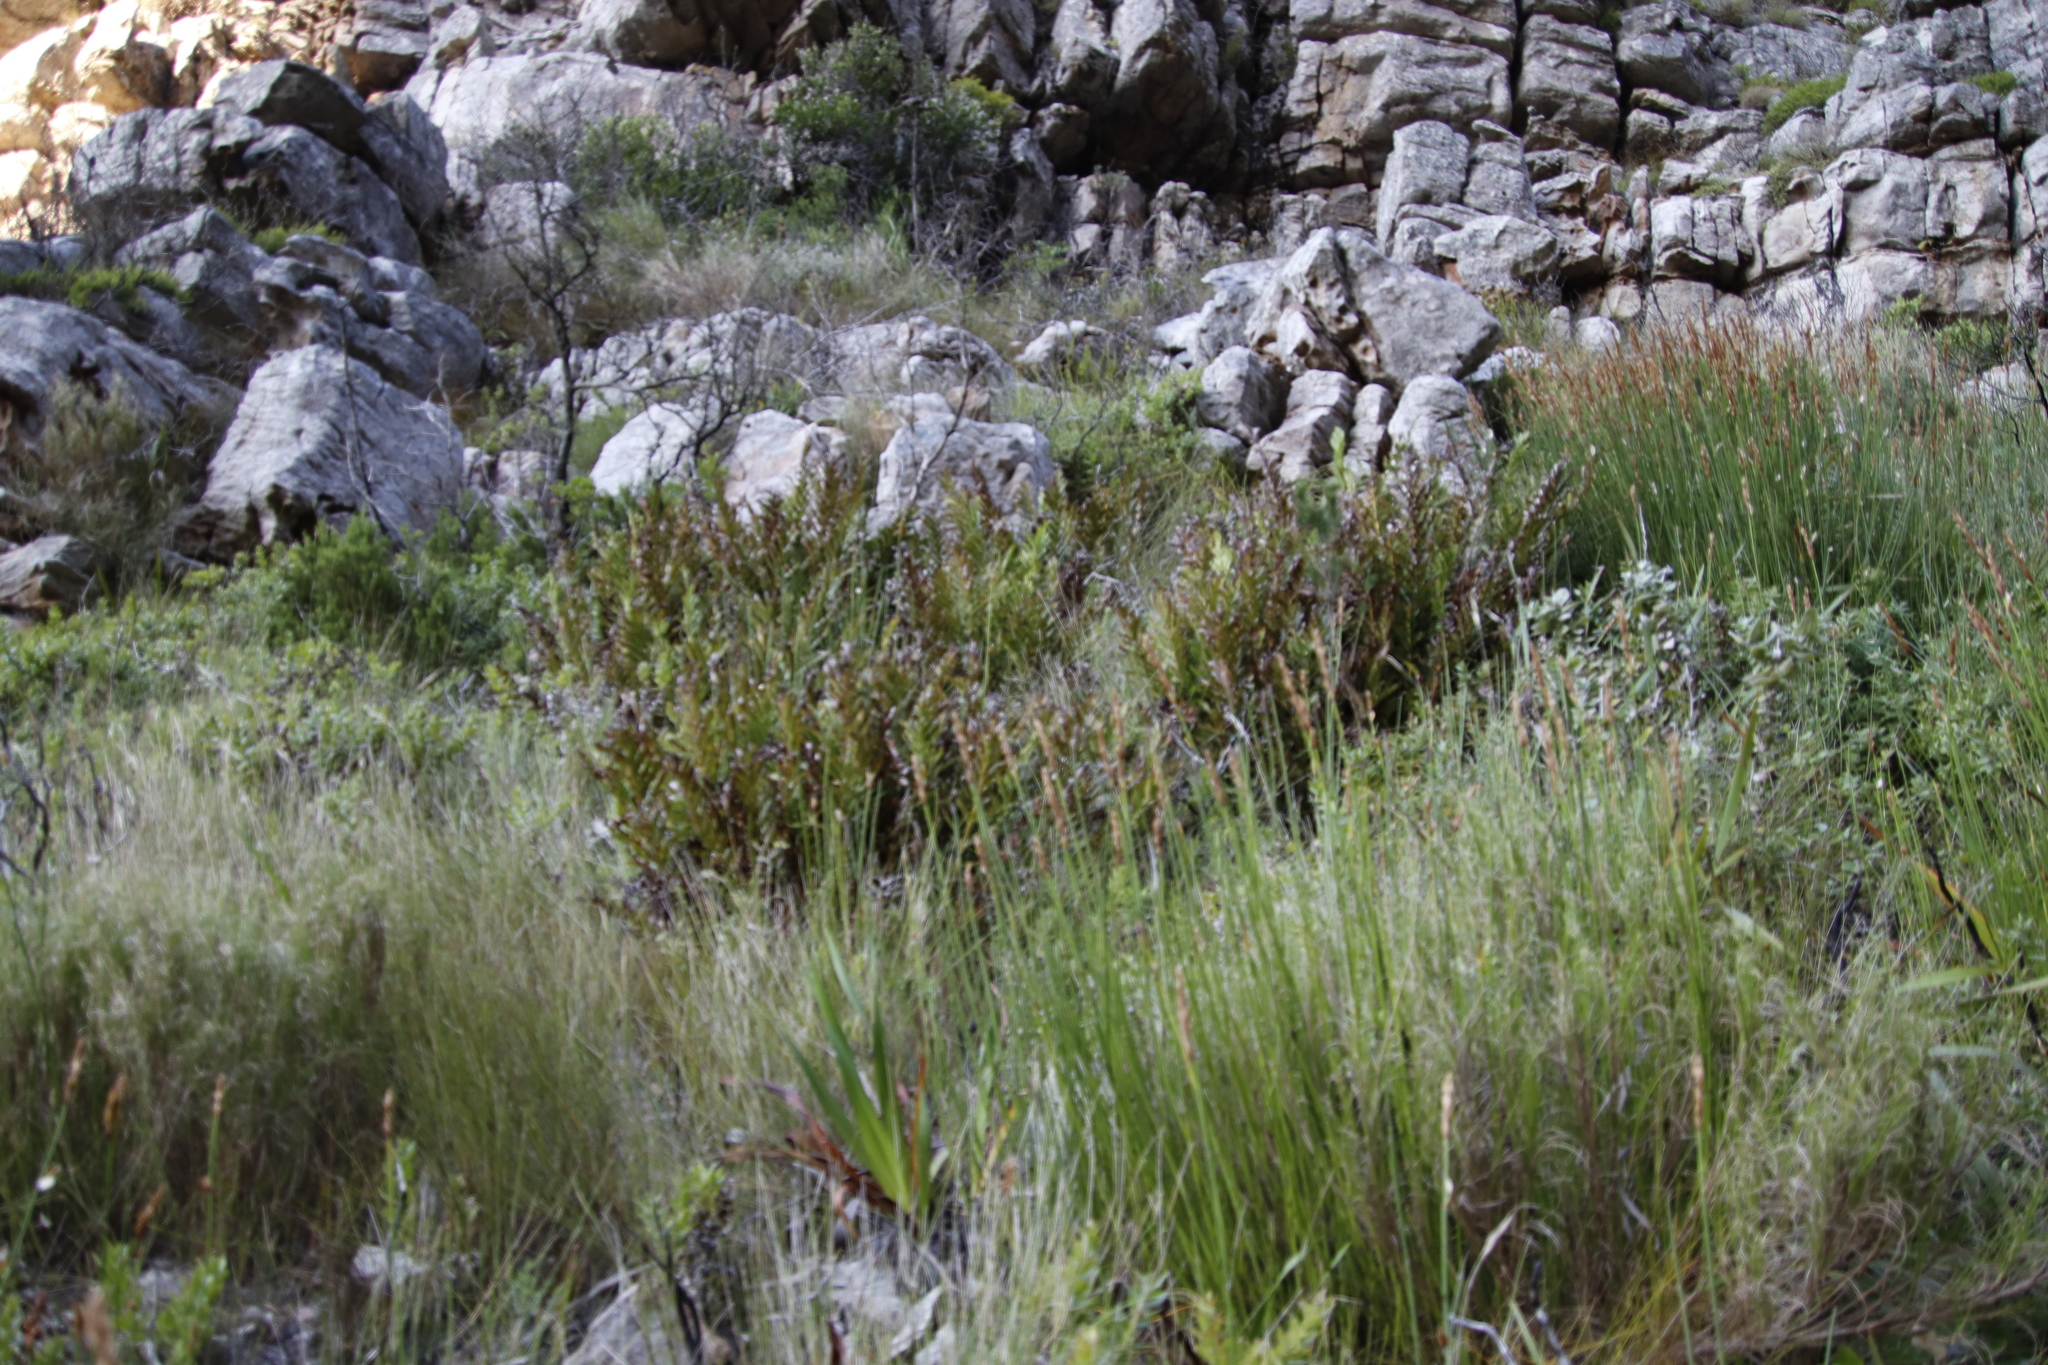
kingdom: Plantae
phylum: Tracheophyta
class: Polypodiopsida
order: Osmundales
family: Osmundaceae
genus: Todea
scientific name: Todea barbara
